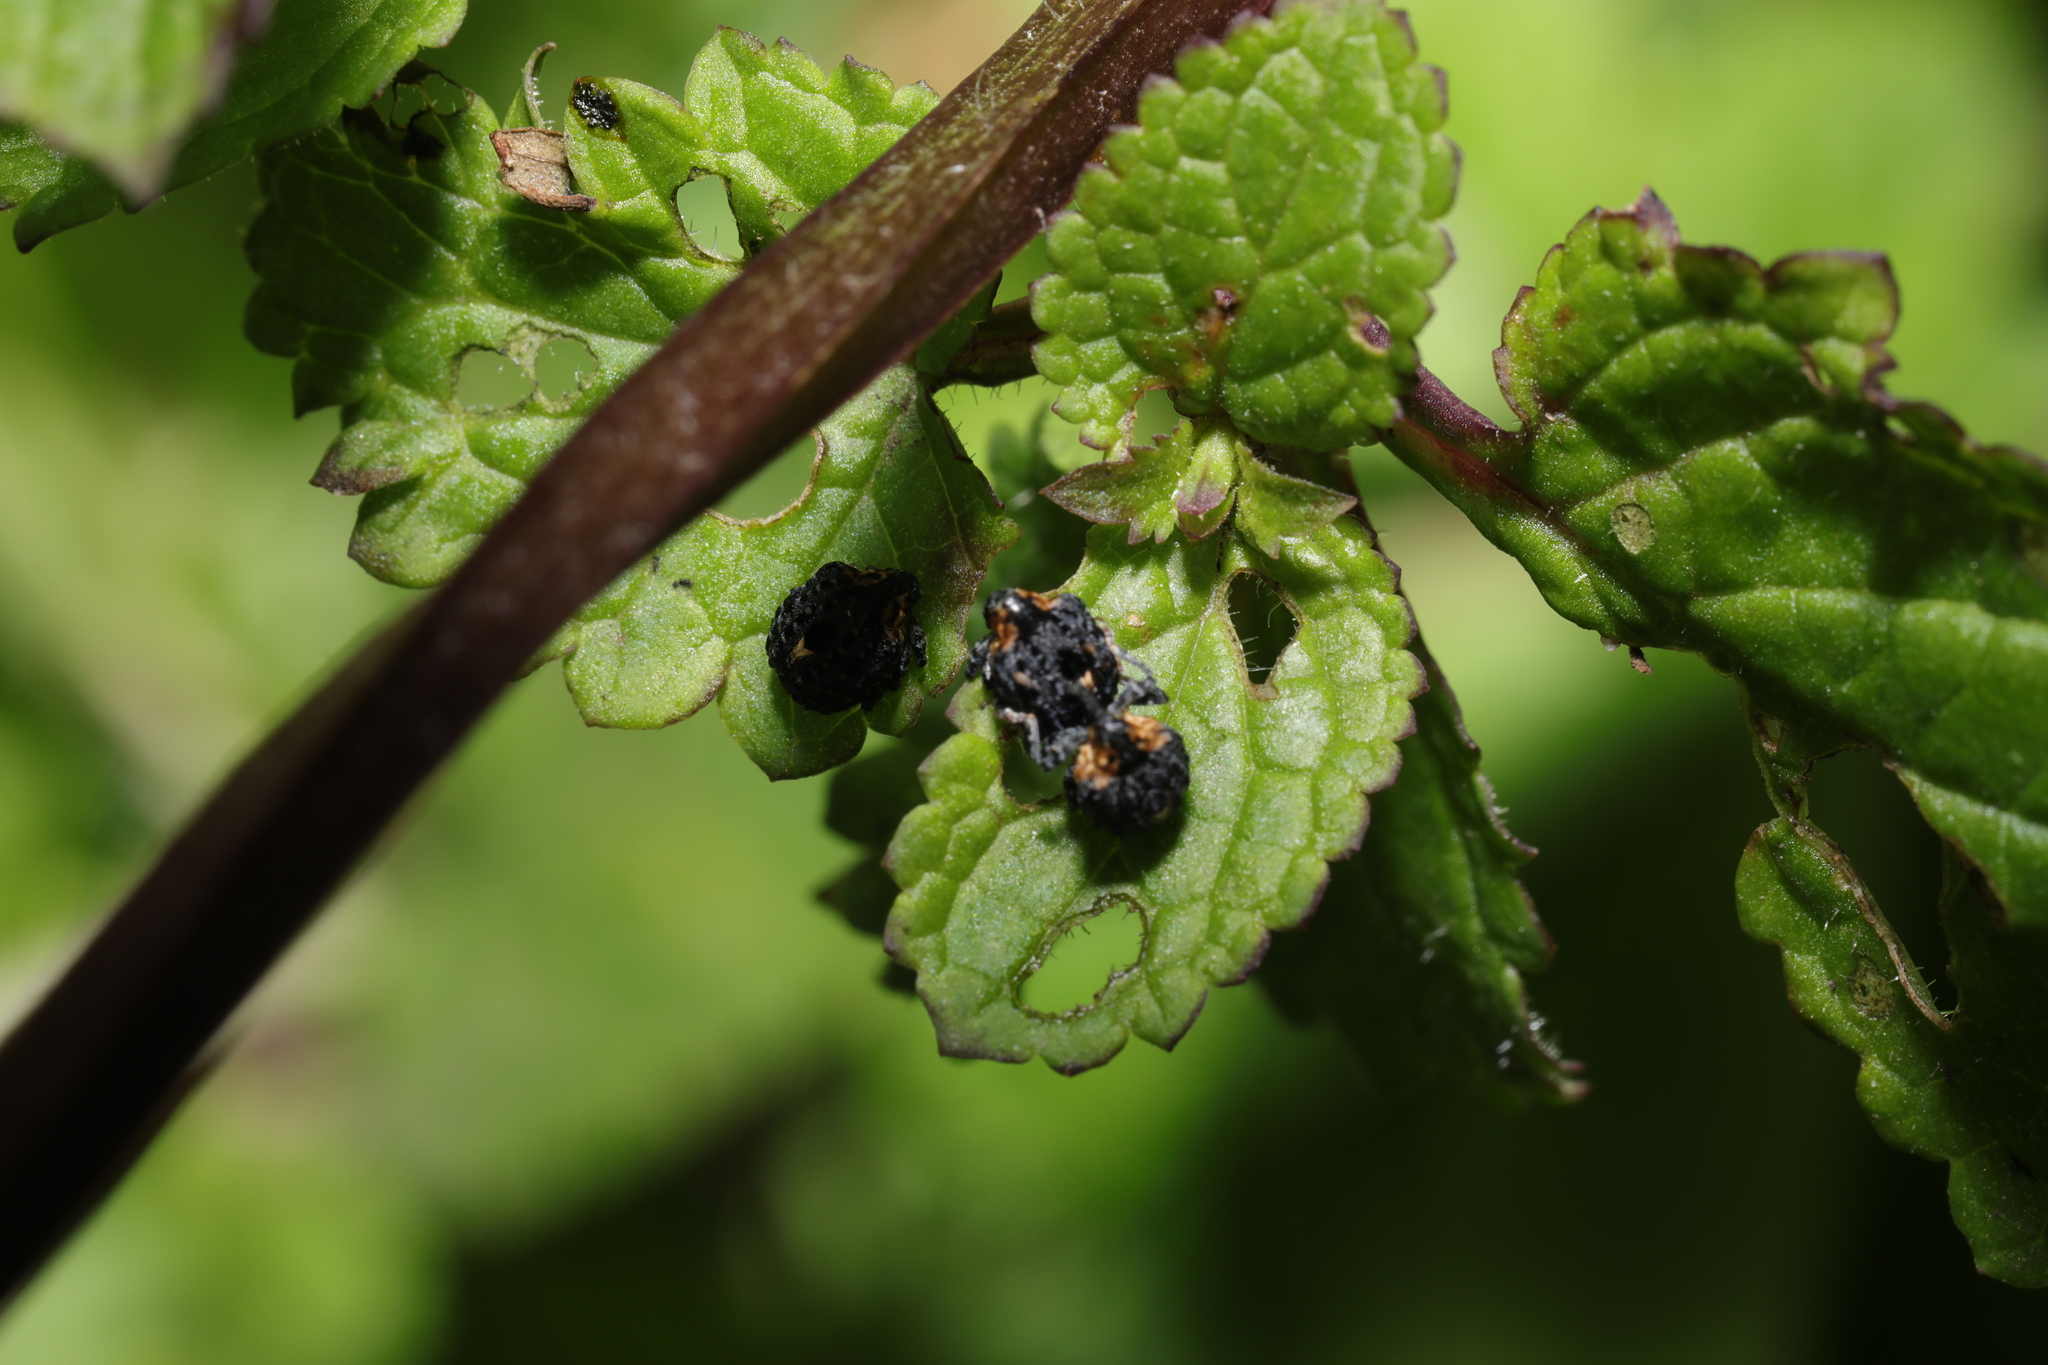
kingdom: Animalia
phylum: Arthropoda
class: Insecta
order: Coleoptera
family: Curculionidae
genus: Cionus
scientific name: Cionus tuberculosus
